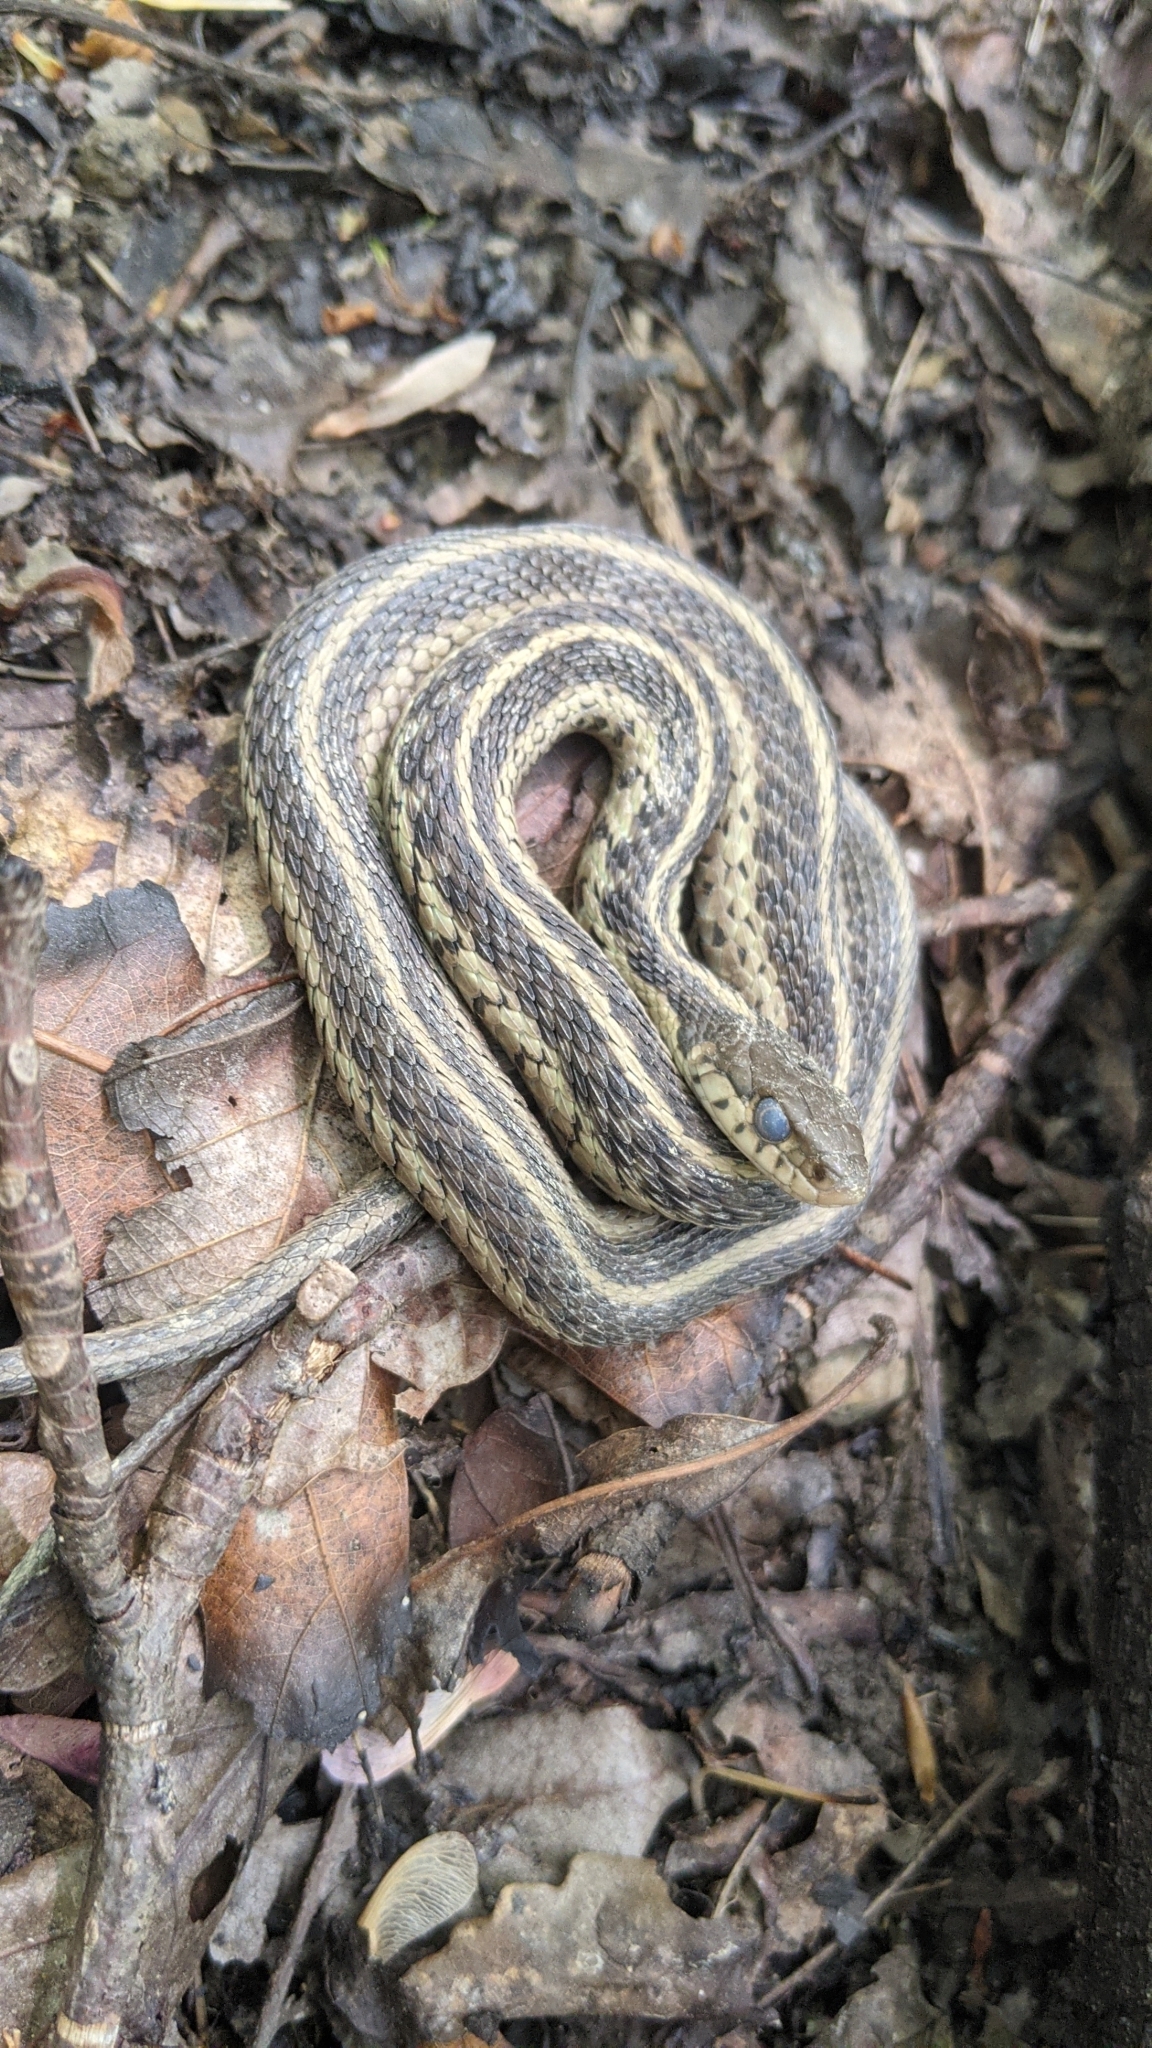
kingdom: Animalia
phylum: Chordata
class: Squamata
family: Colubridae
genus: Thamnophis
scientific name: Thamnophis sirtalis
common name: Common garter snake
